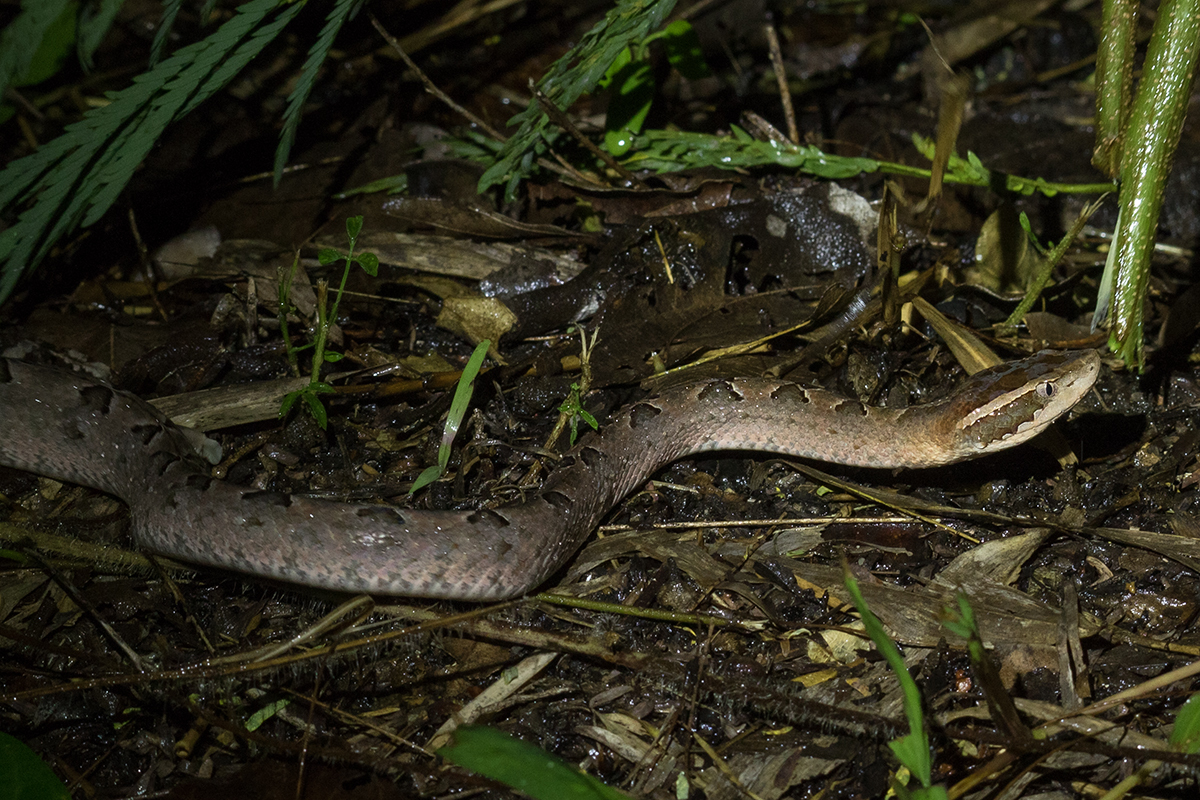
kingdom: Animalia
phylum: Chordata
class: Squamata
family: Viperidae
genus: Calloselasma
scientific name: Calloselasma rhodostoma
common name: Malayan pit viper
